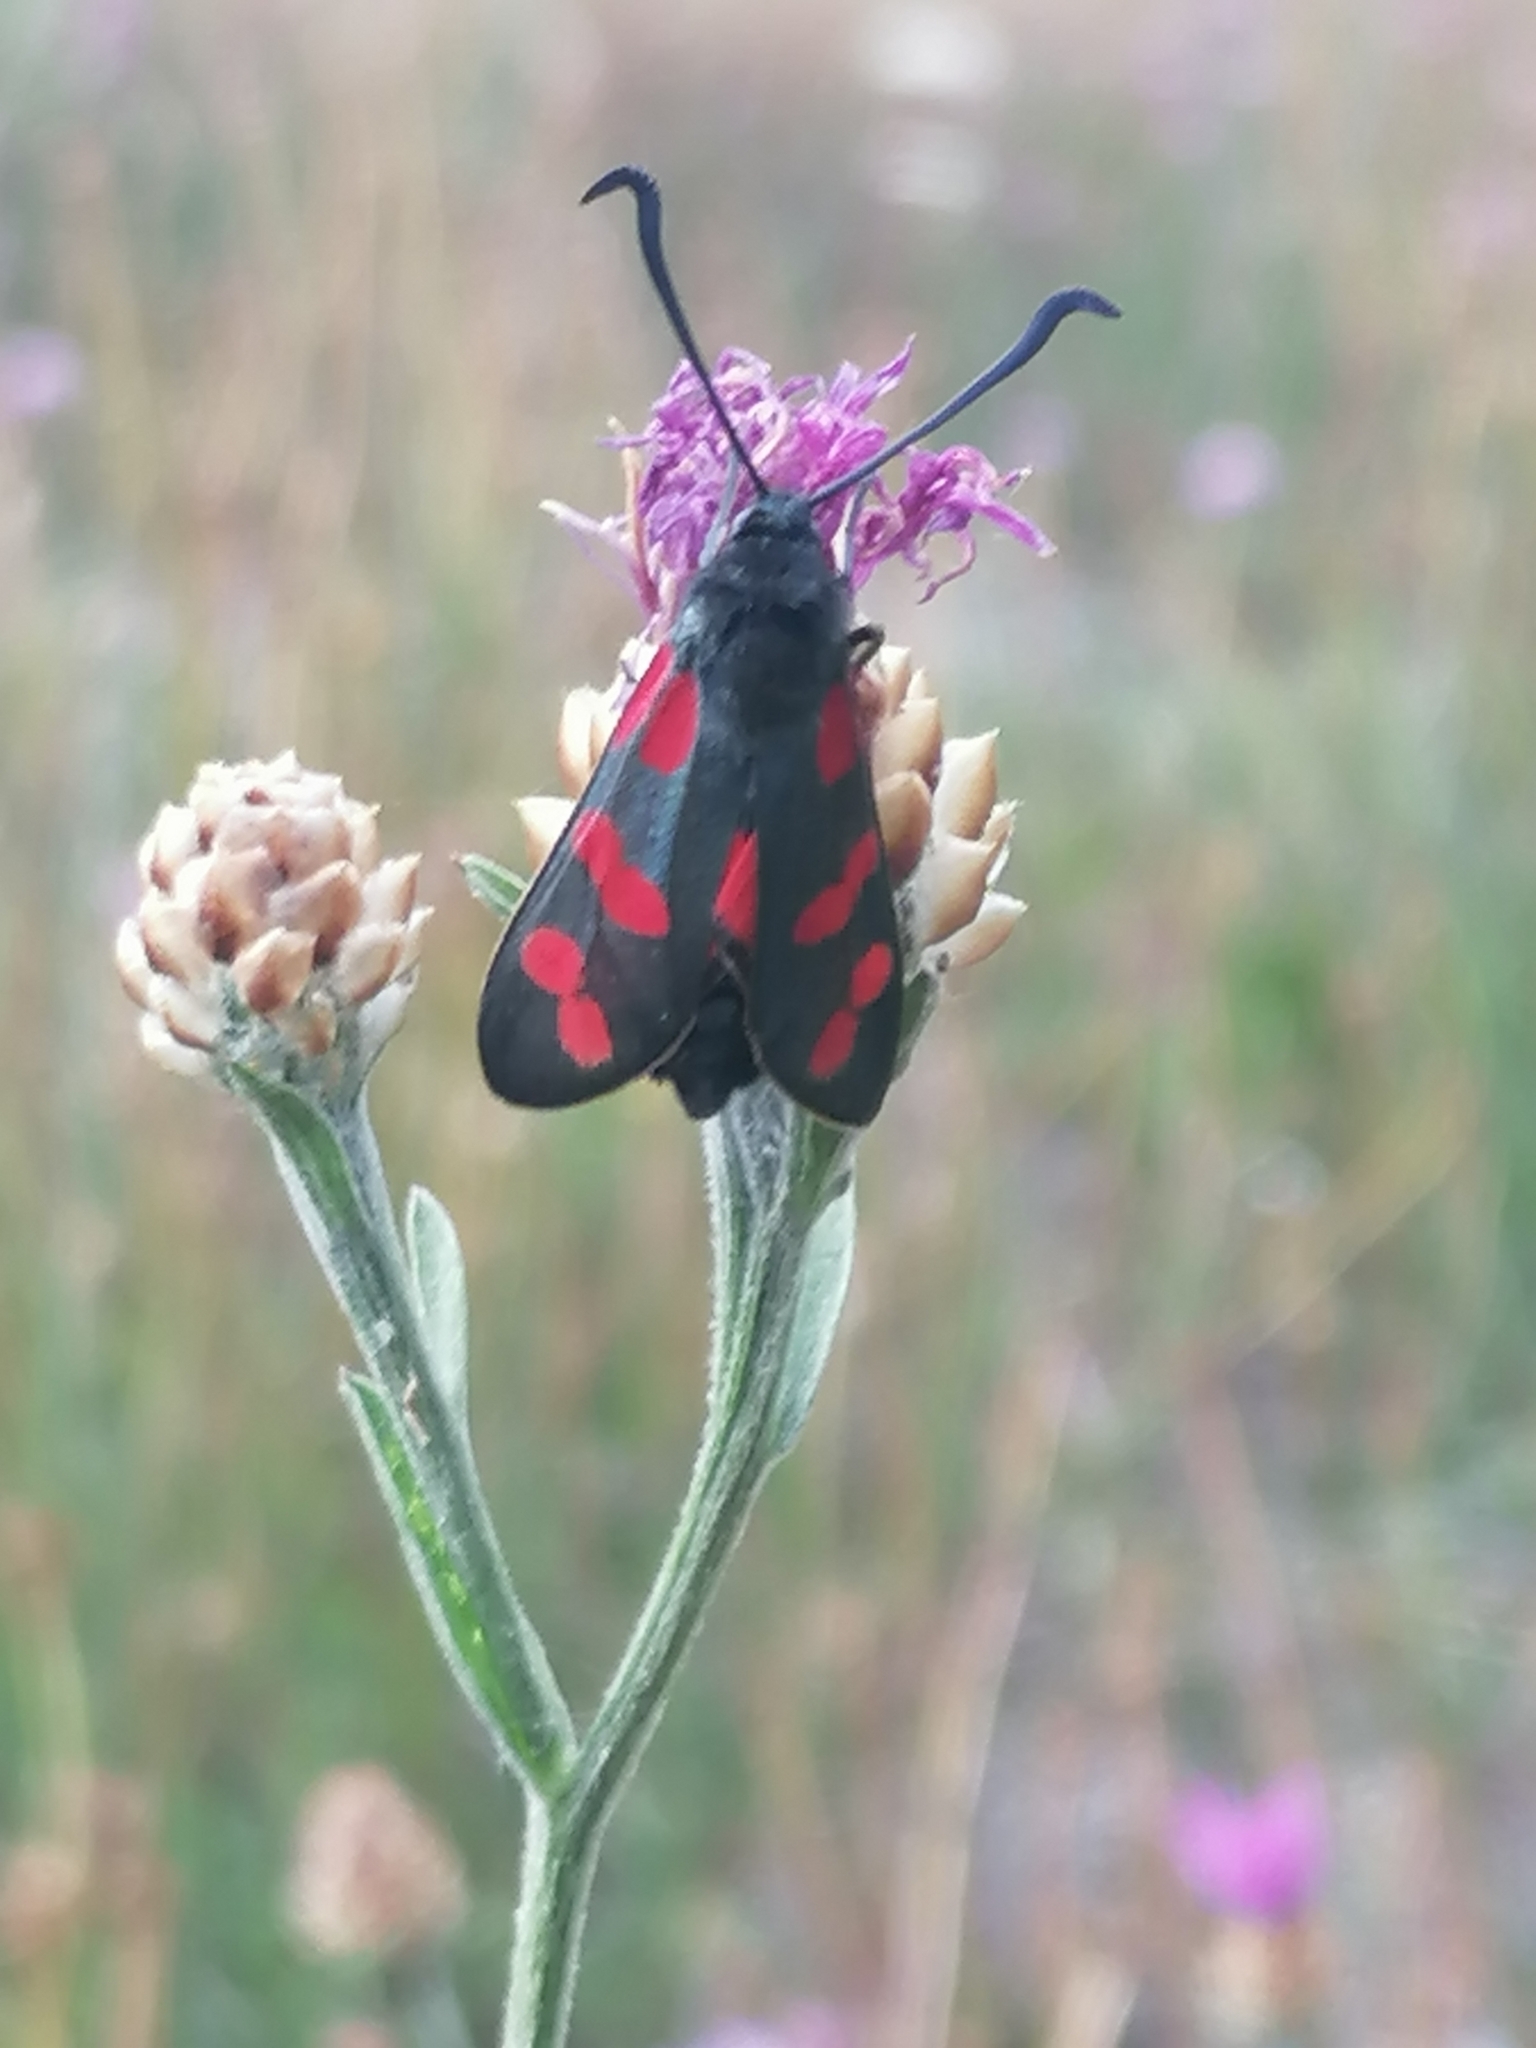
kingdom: Animalia
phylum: Arthropoda
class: Insecta
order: Lepidoptera
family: Zygaenidae
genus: Zygaena
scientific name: Zygaena filipendulae
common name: Six-spot burnet
